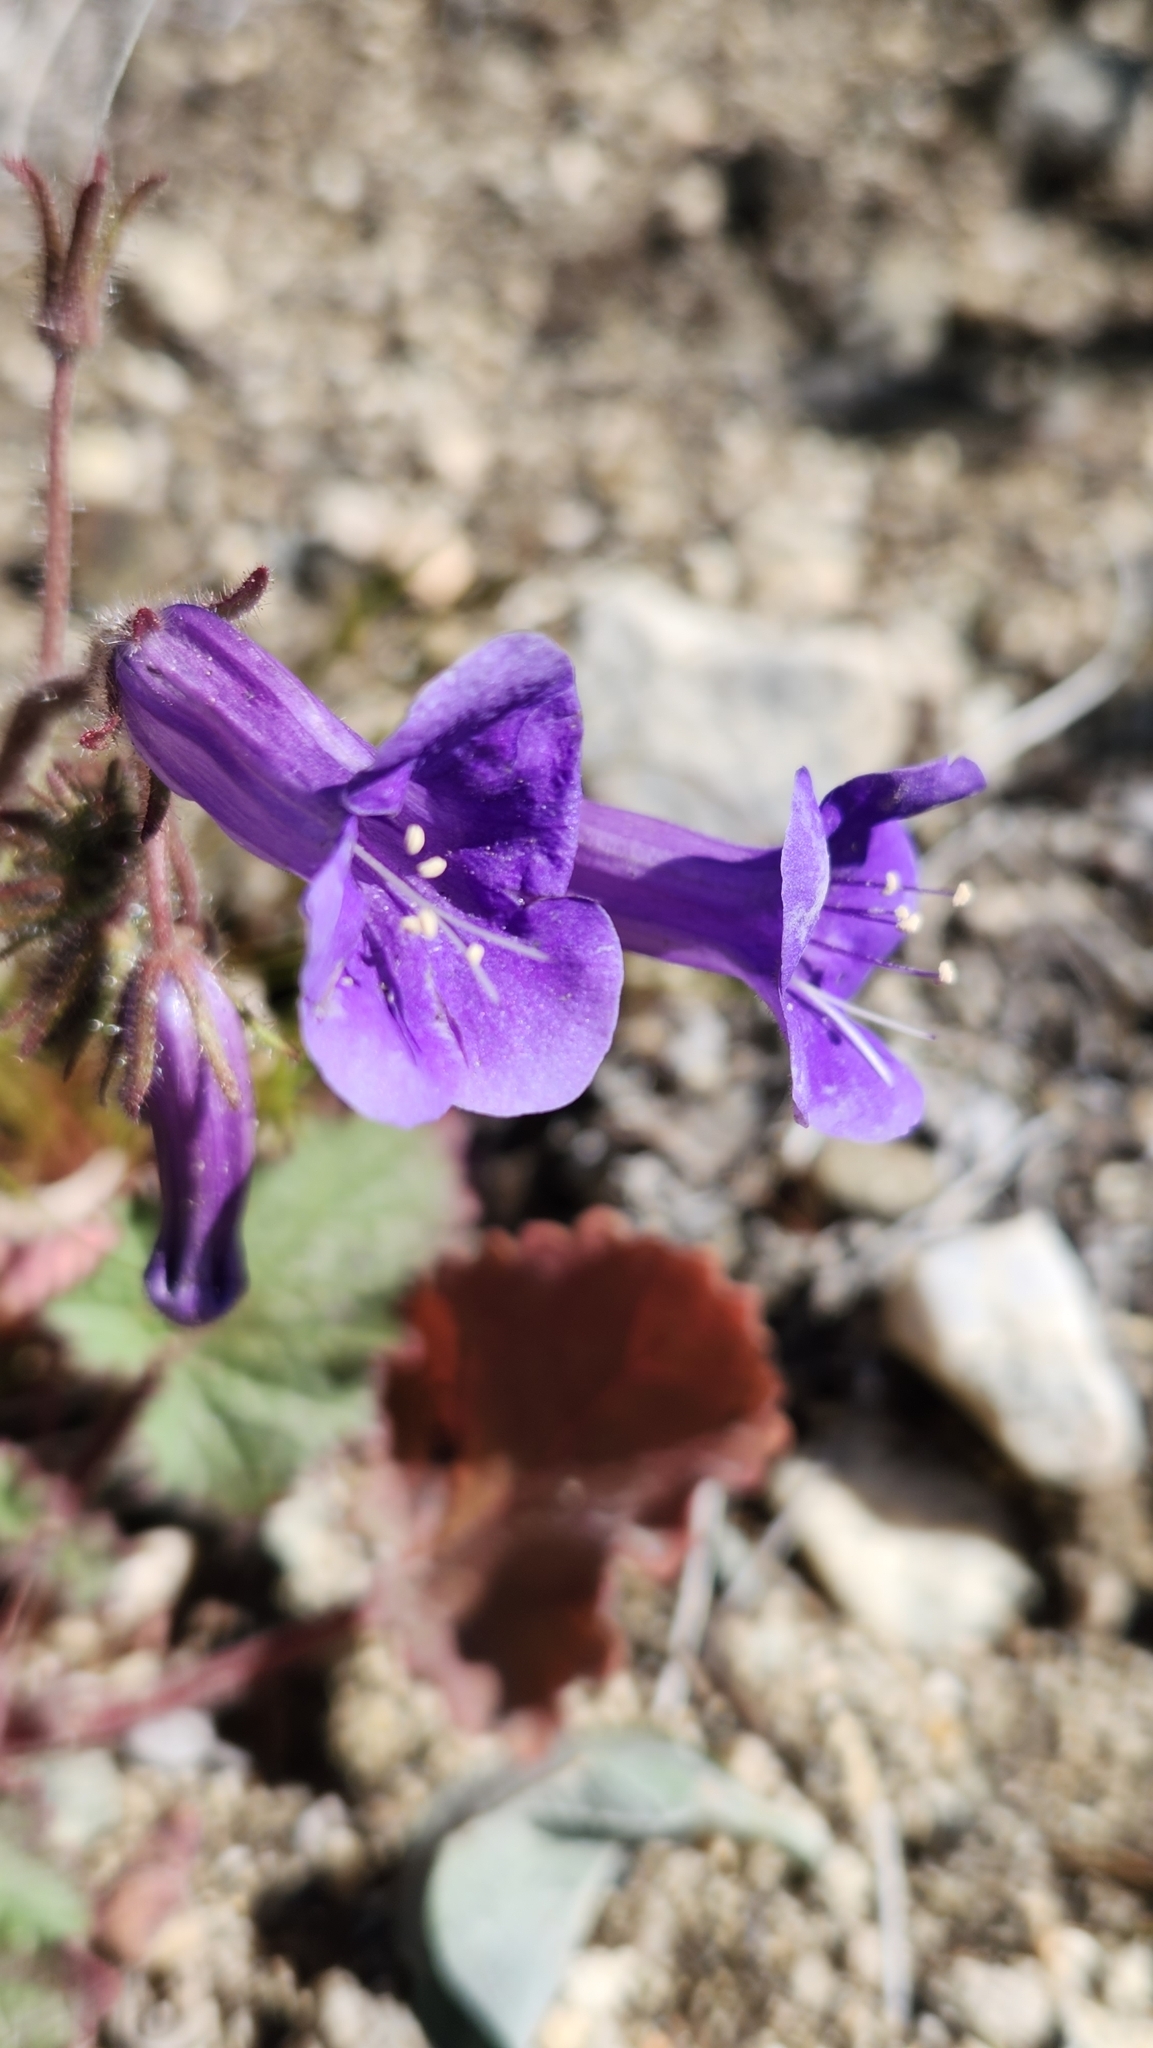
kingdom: Plantae
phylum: Tracheophyta
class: Magnoliopsida
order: Boraginales
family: Hydrophyllaceae
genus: Phacelia
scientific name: Phacelia minor
